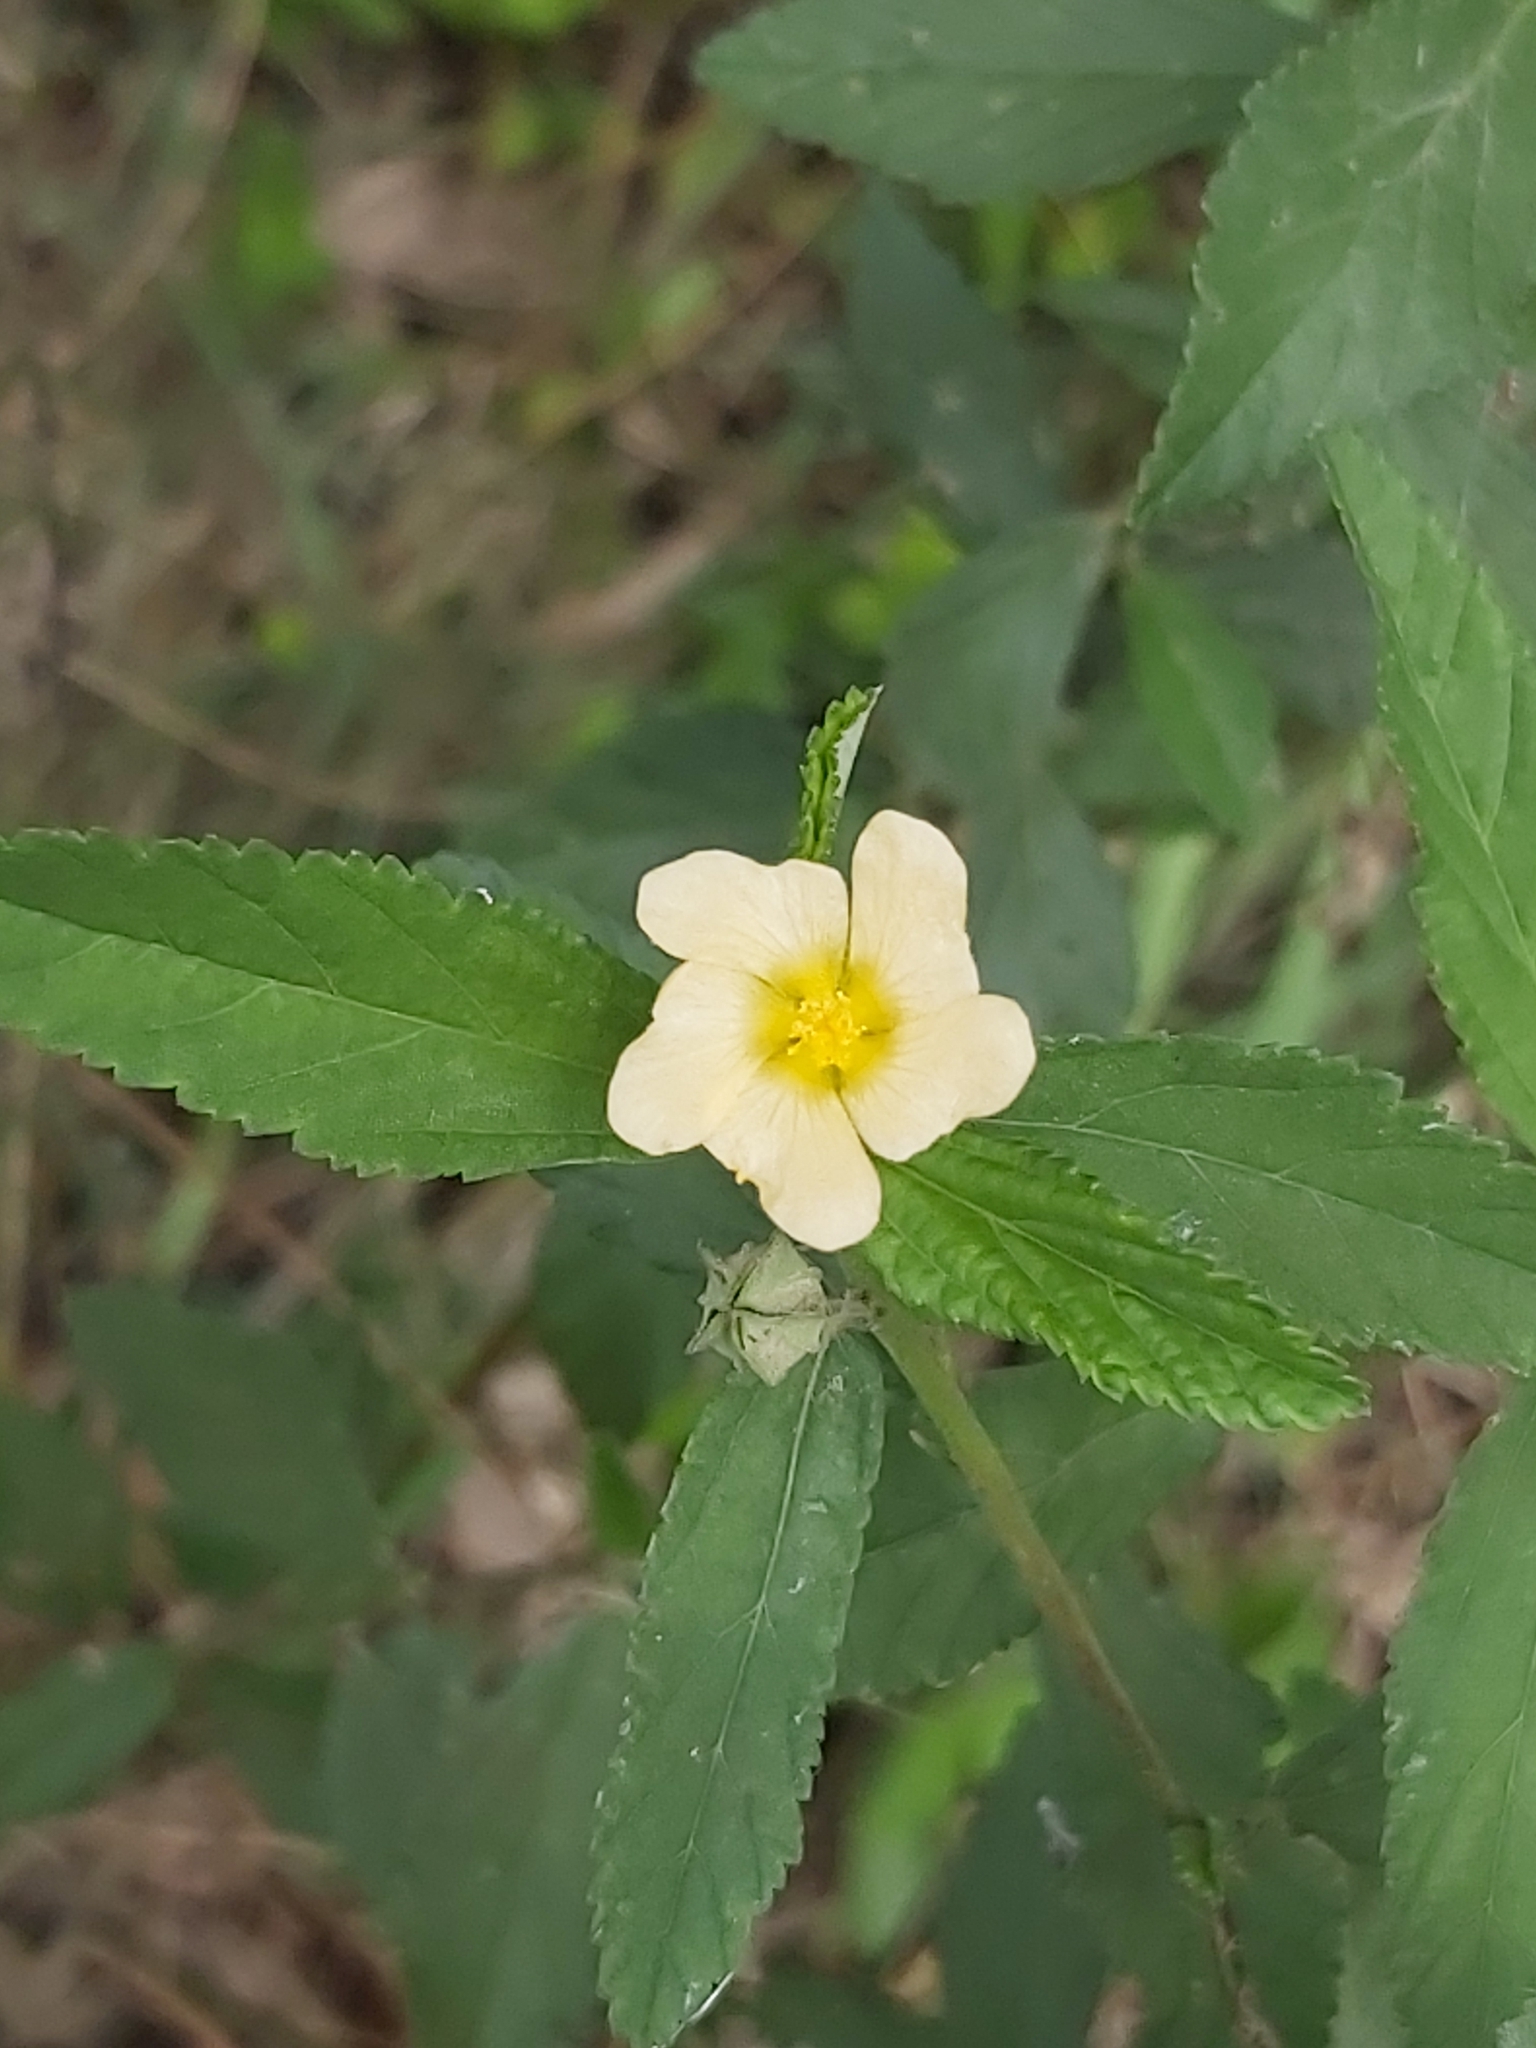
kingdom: Plantae
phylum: Tracheophyta
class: Magnoliopsida
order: Malvales
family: Malvaceae
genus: Sida
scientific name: Sida rhombifolia
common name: Queensland-hemp
